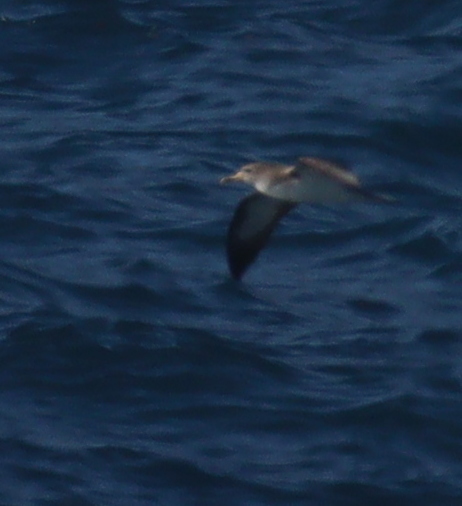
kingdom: Animalia
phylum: Chordata
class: Aves
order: Procellariiformes
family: Procellariidae
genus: Calonectris
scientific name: Calonectris diomedea
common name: Cory's shearwater
